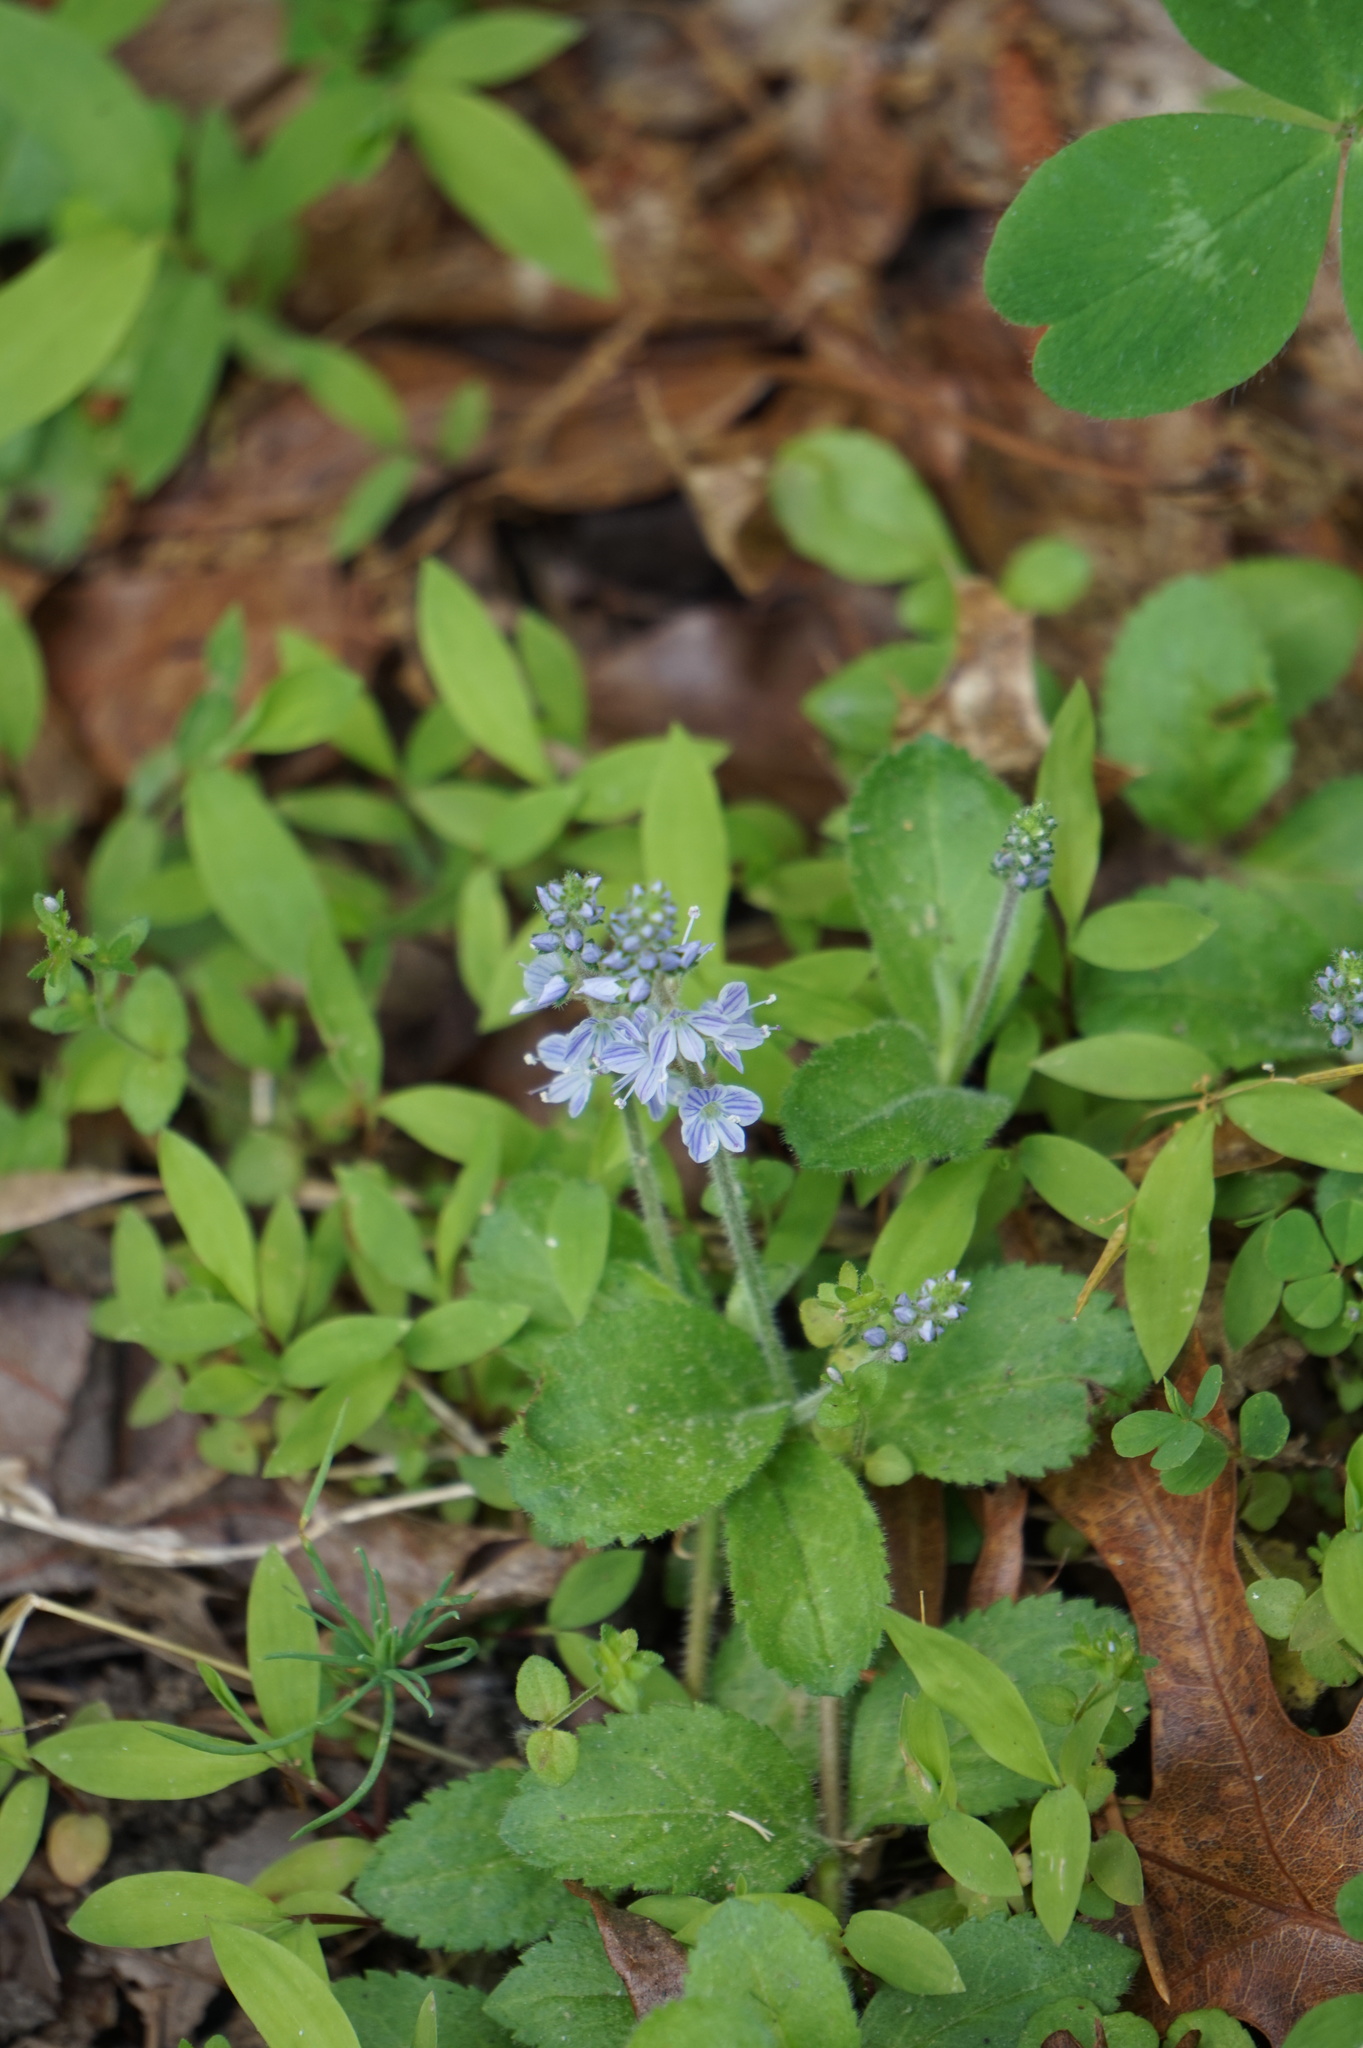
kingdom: Plantae
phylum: Tracheophyta
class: Magnoliopsida
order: Lamiales
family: Plantaginaceae
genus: Veronica
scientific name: Veronica officinalis
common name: Common speedwell
